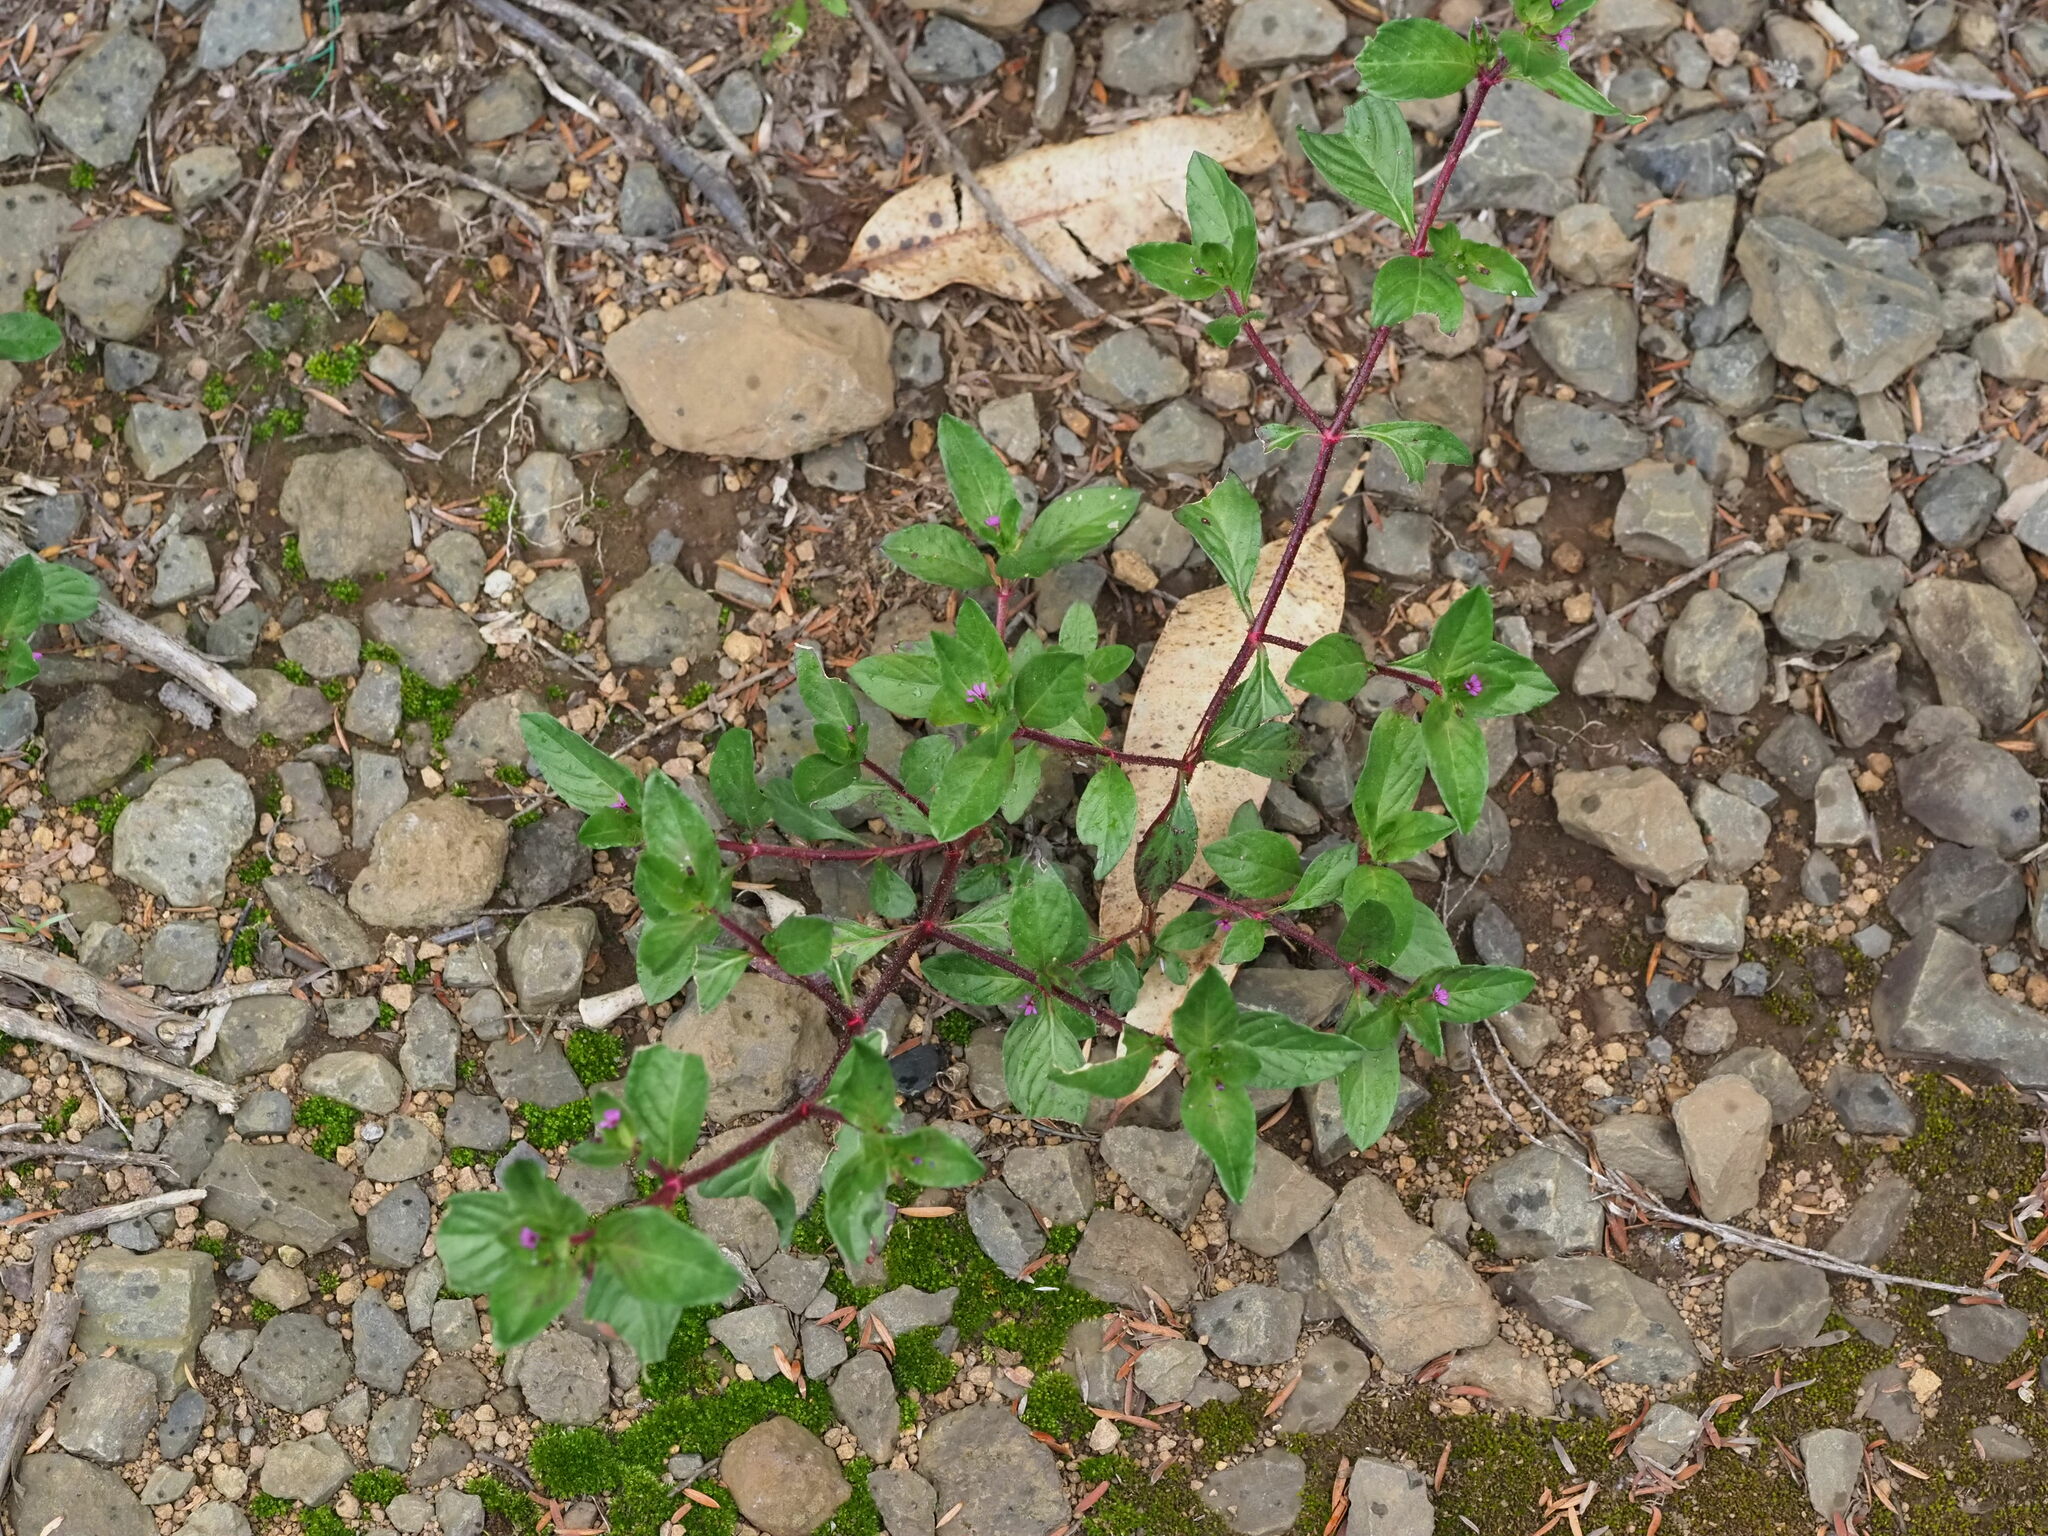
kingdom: Plantae
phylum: Tracheophyta
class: Magnoliopsida
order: Myrtales
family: Lythraceae
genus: Cuphea
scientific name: Cuphea carthagenensis
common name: Colombian waxweed
